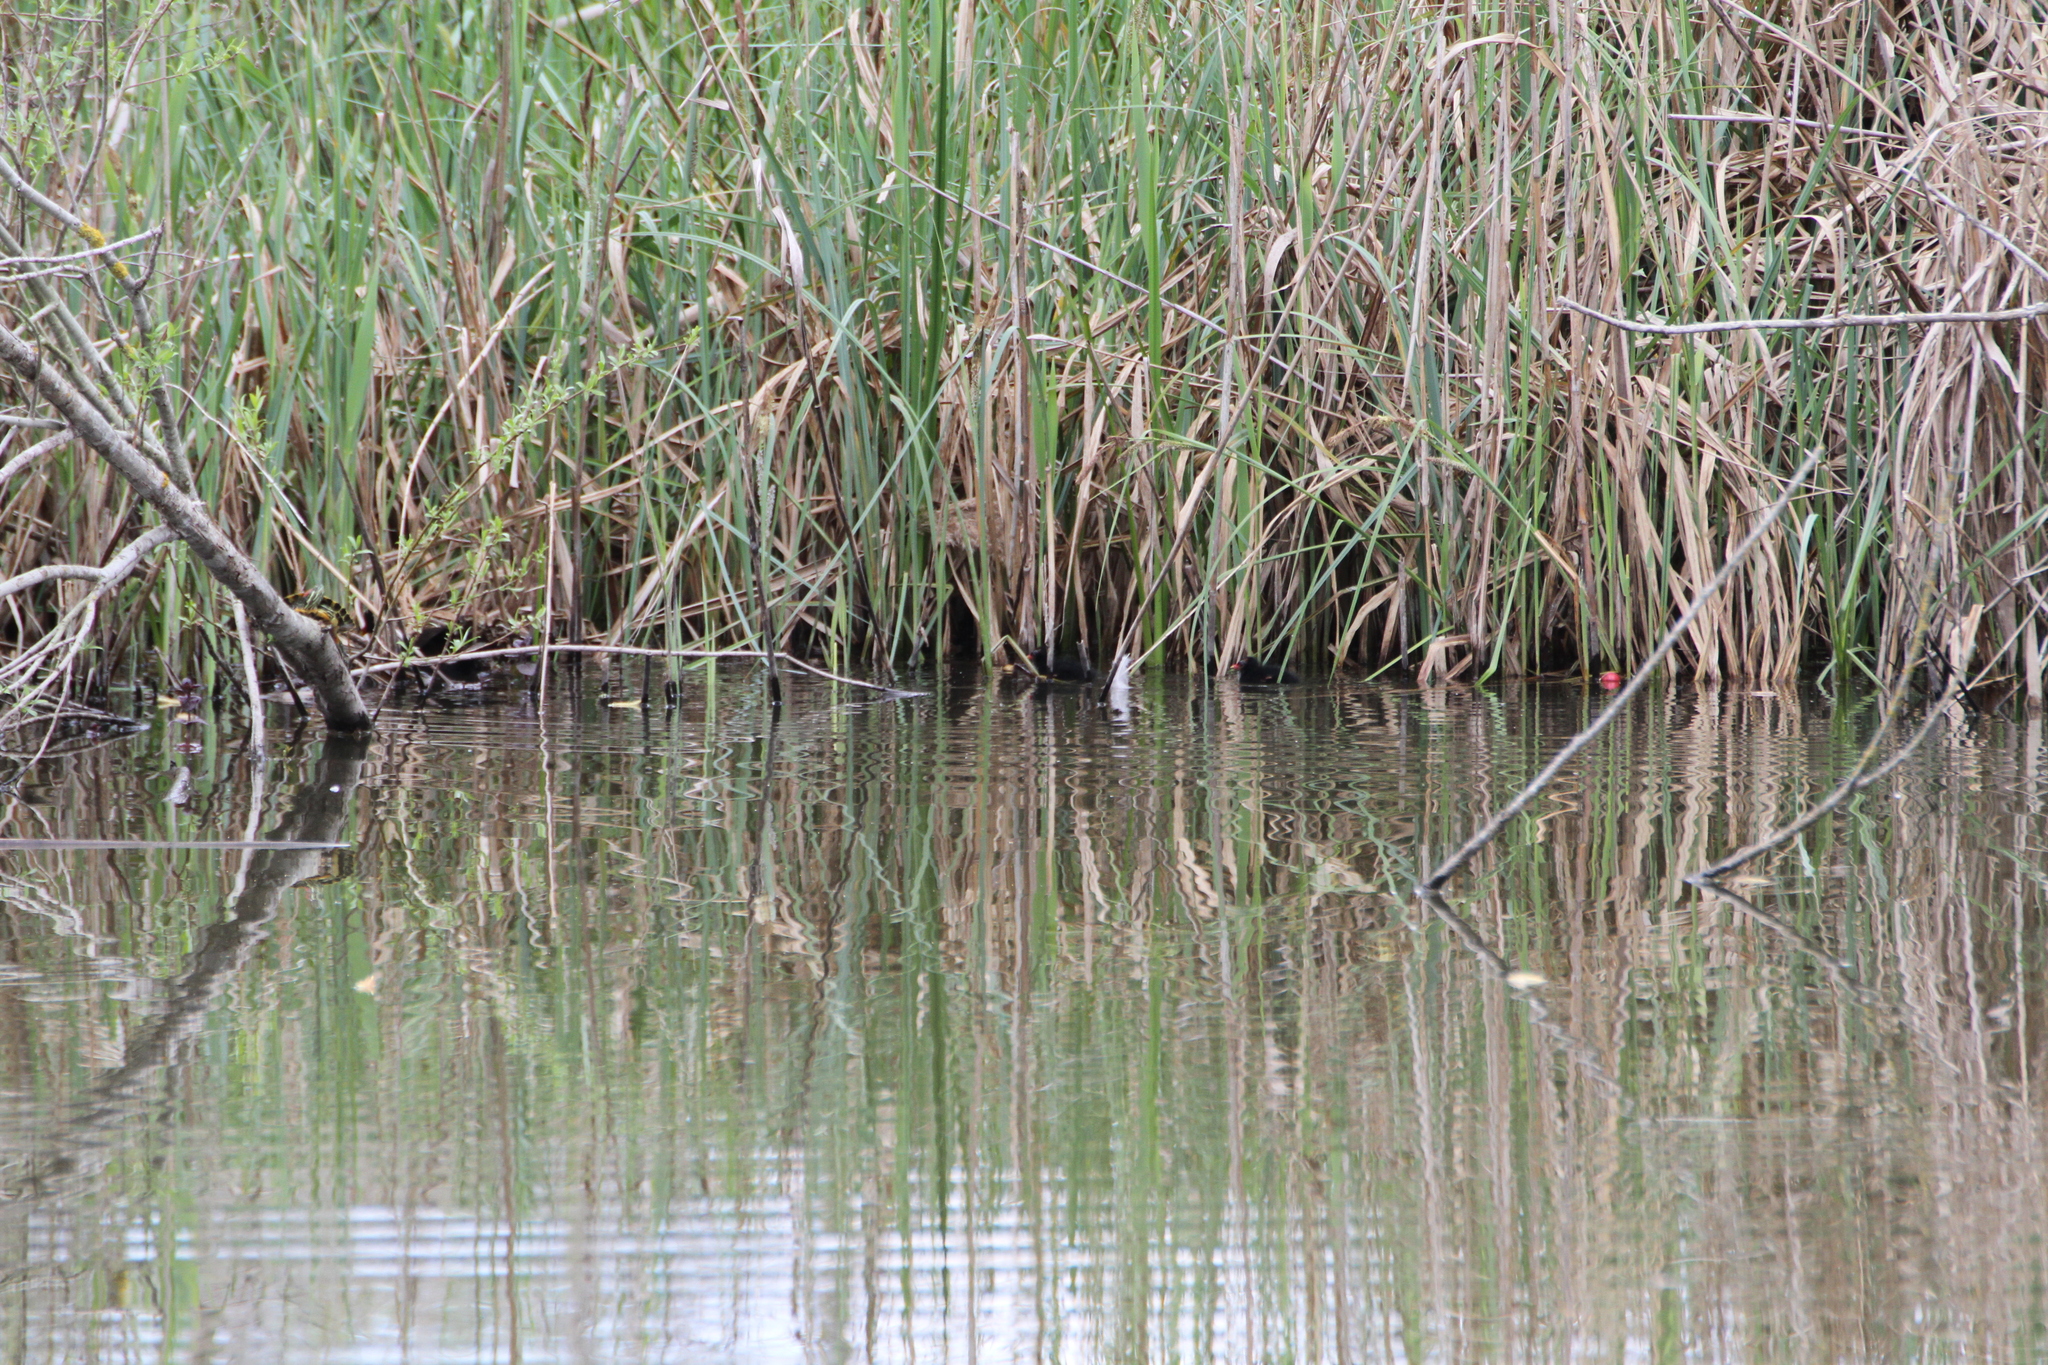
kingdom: Animalia
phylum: Chordata
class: Aves
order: Gruiformes
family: Rallidae
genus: Gallinula
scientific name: Gallinula chloropus
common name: Common moorhen
